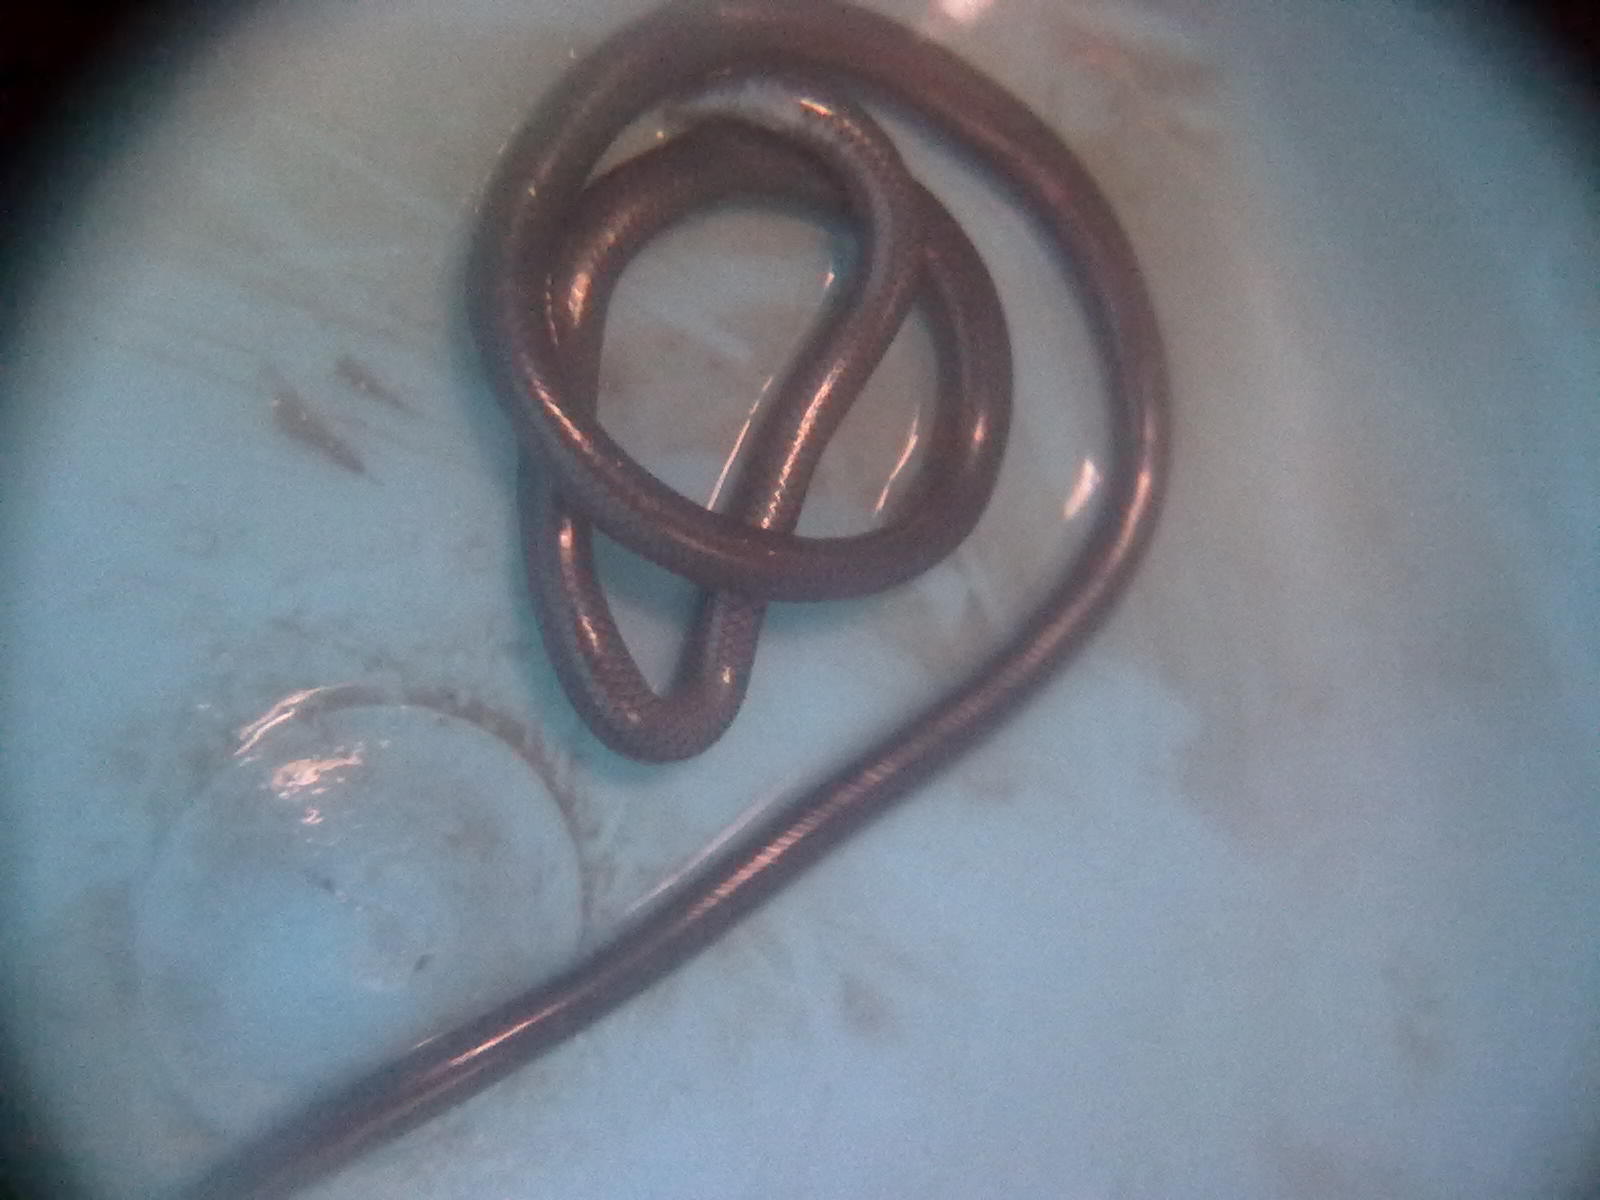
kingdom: Animalia
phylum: Chordata
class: Squamata
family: Typhlopidae
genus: Indotyphlops
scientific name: Indotyphlops braminus
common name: Brahminy blindsnake
